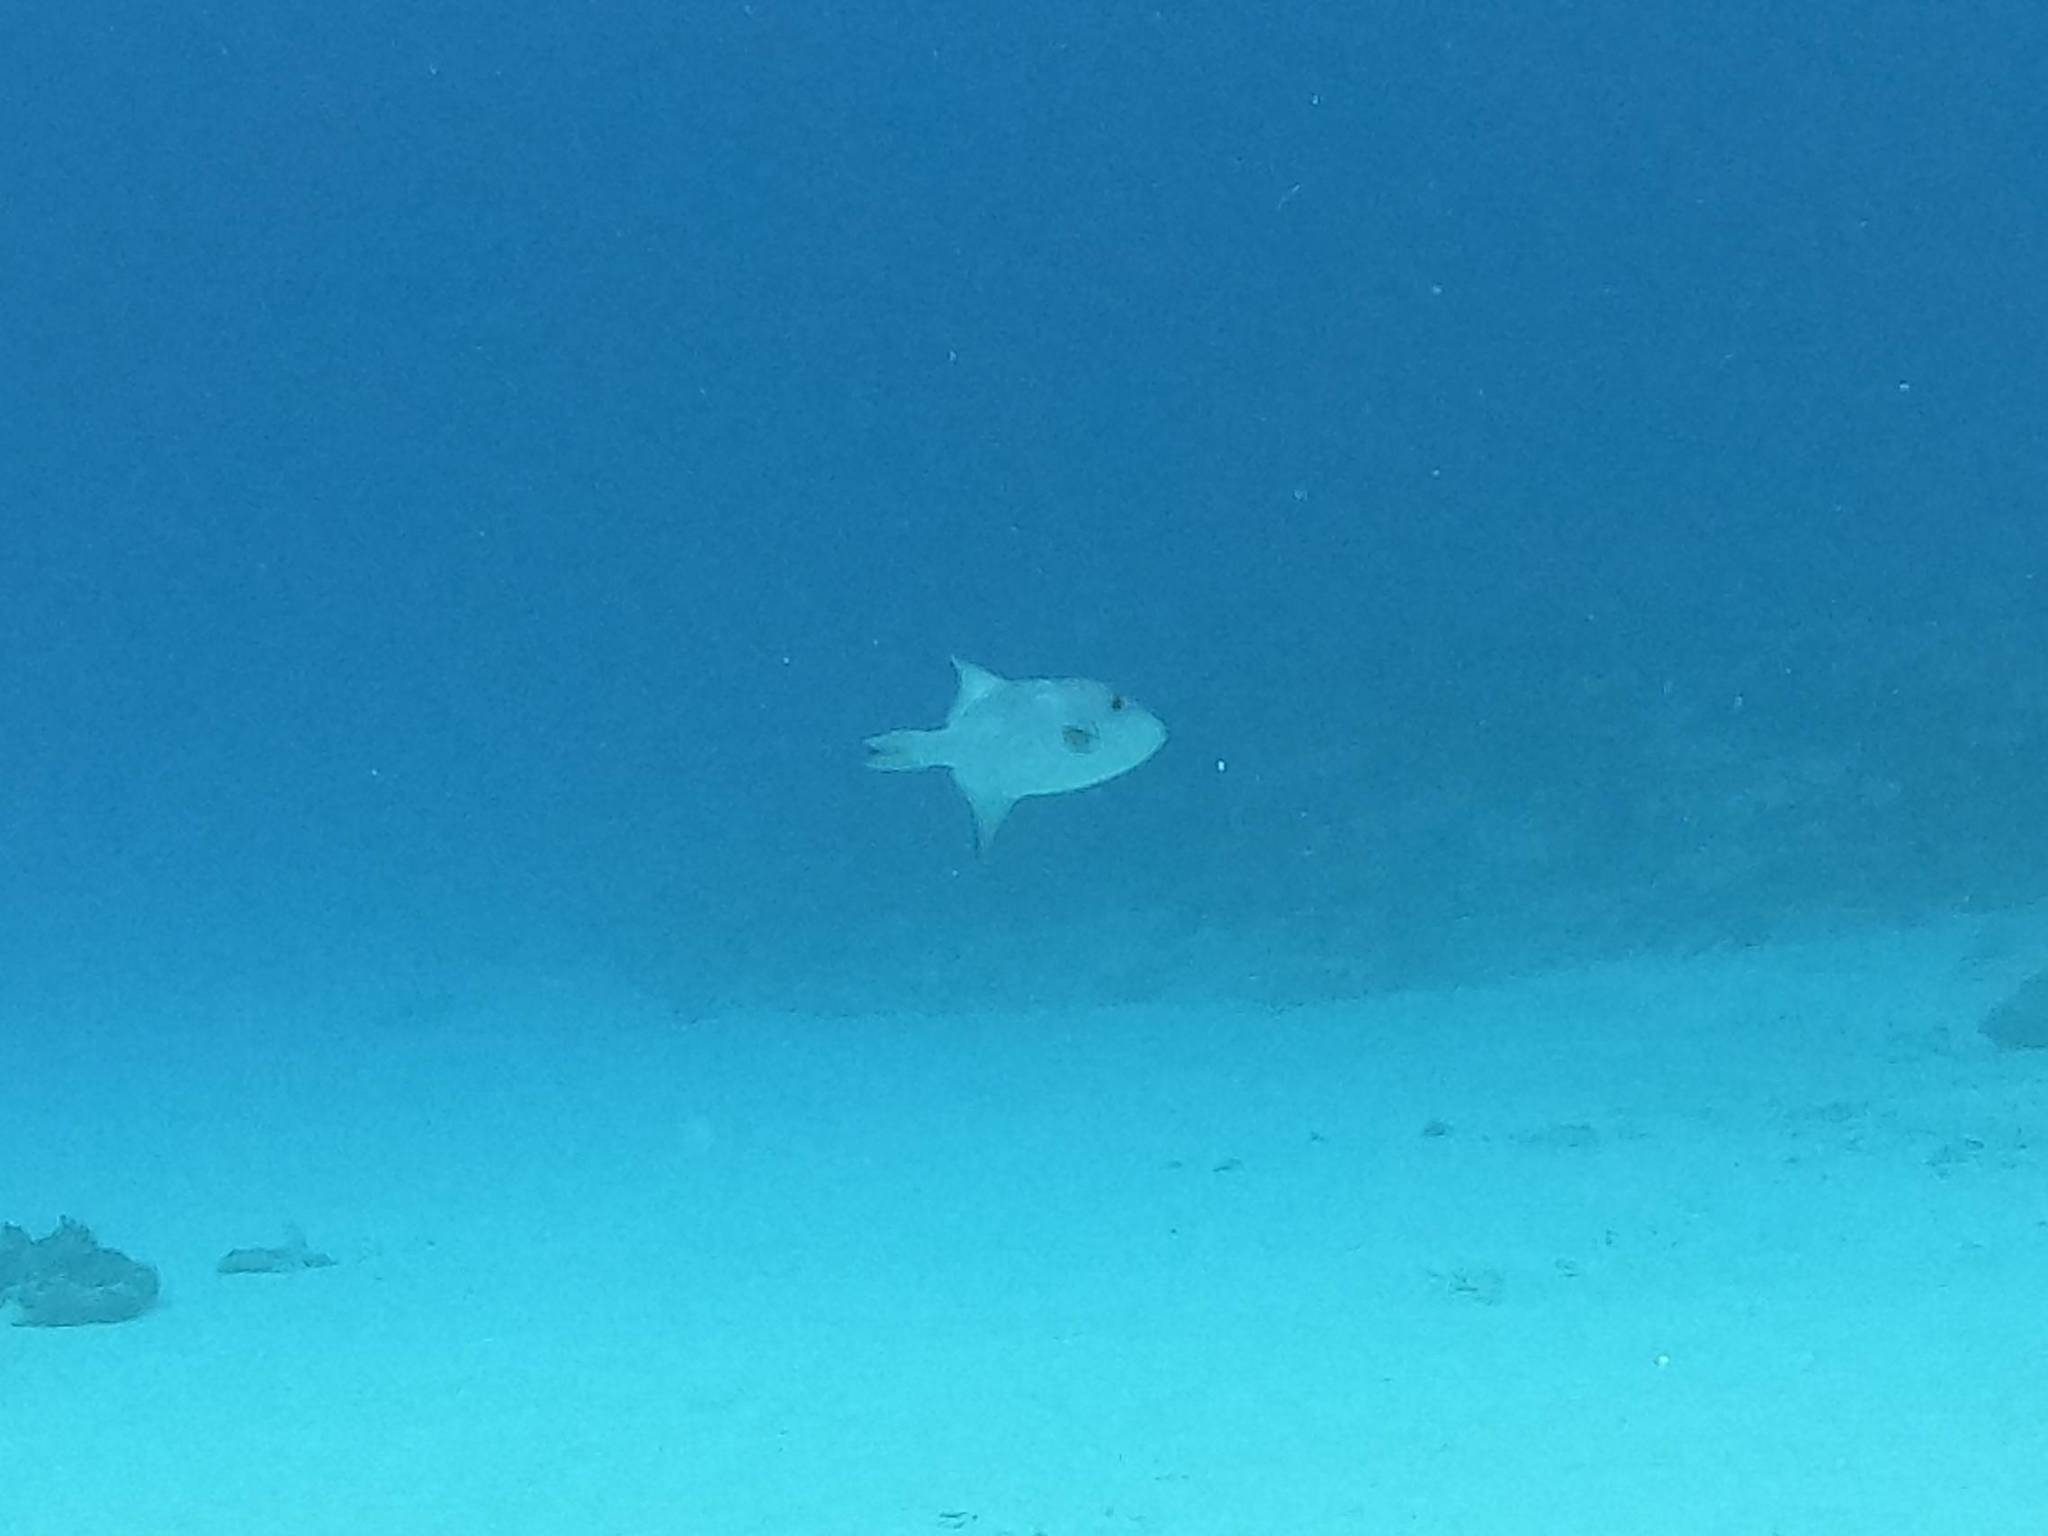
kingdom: Animalia
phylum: Chordata
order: Tetraodontiformes
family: Balistidae
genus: Canthidermis
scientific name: Canthidermis sufflamen
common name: Ocean triggerfish
